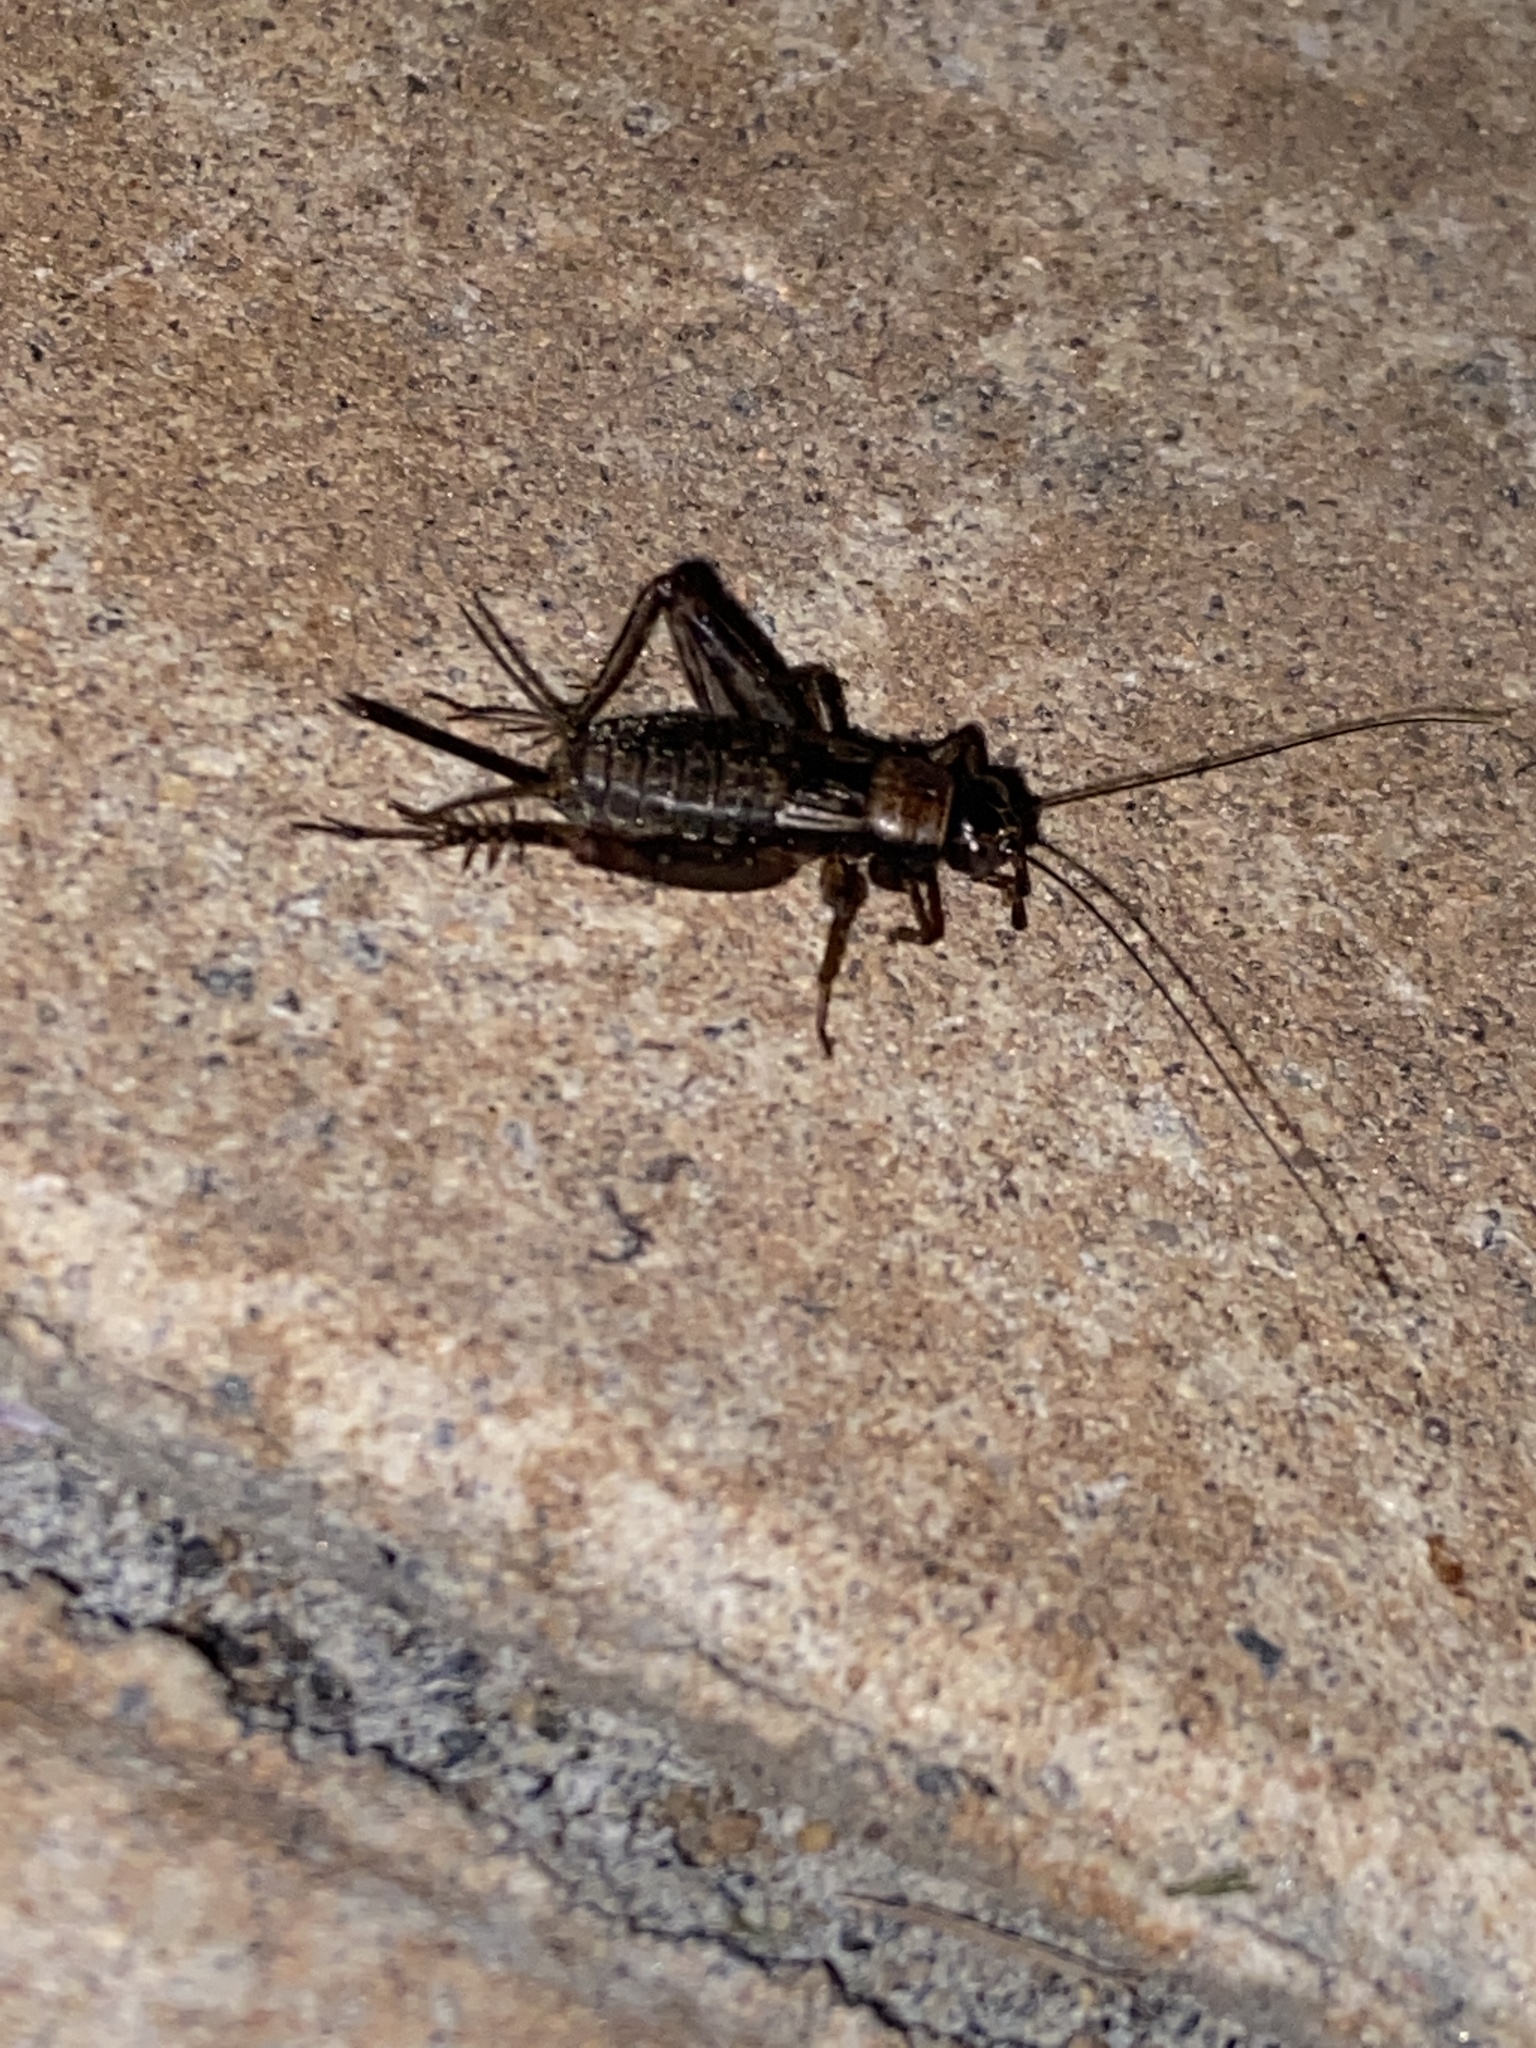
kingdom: Animalia
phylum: Arthropoda
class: Insecta
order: Orthoptera
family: Trigonidiidae
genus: Nemobius
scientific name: Nemobius sylvestris
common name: Wood-cricket
